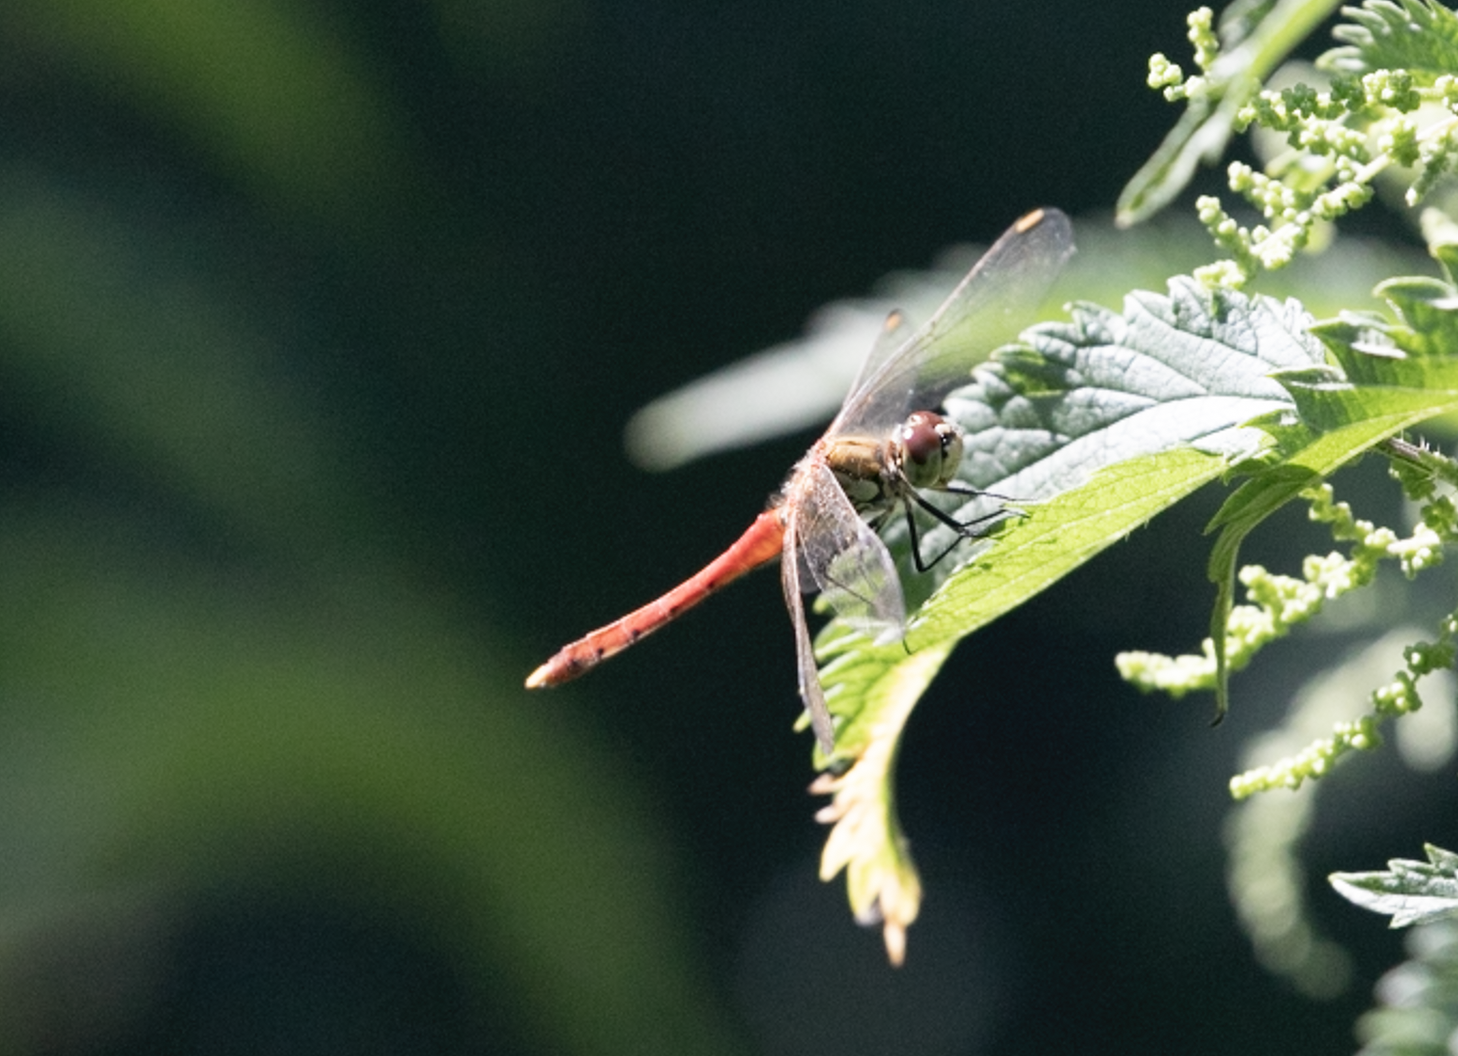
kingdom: Animalia
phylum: Arthropoda
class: Insecta
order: Odonata
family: Libellulidae
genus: Sympetrum
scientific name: Sympetrum depressiusculum
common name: Spotted darter
